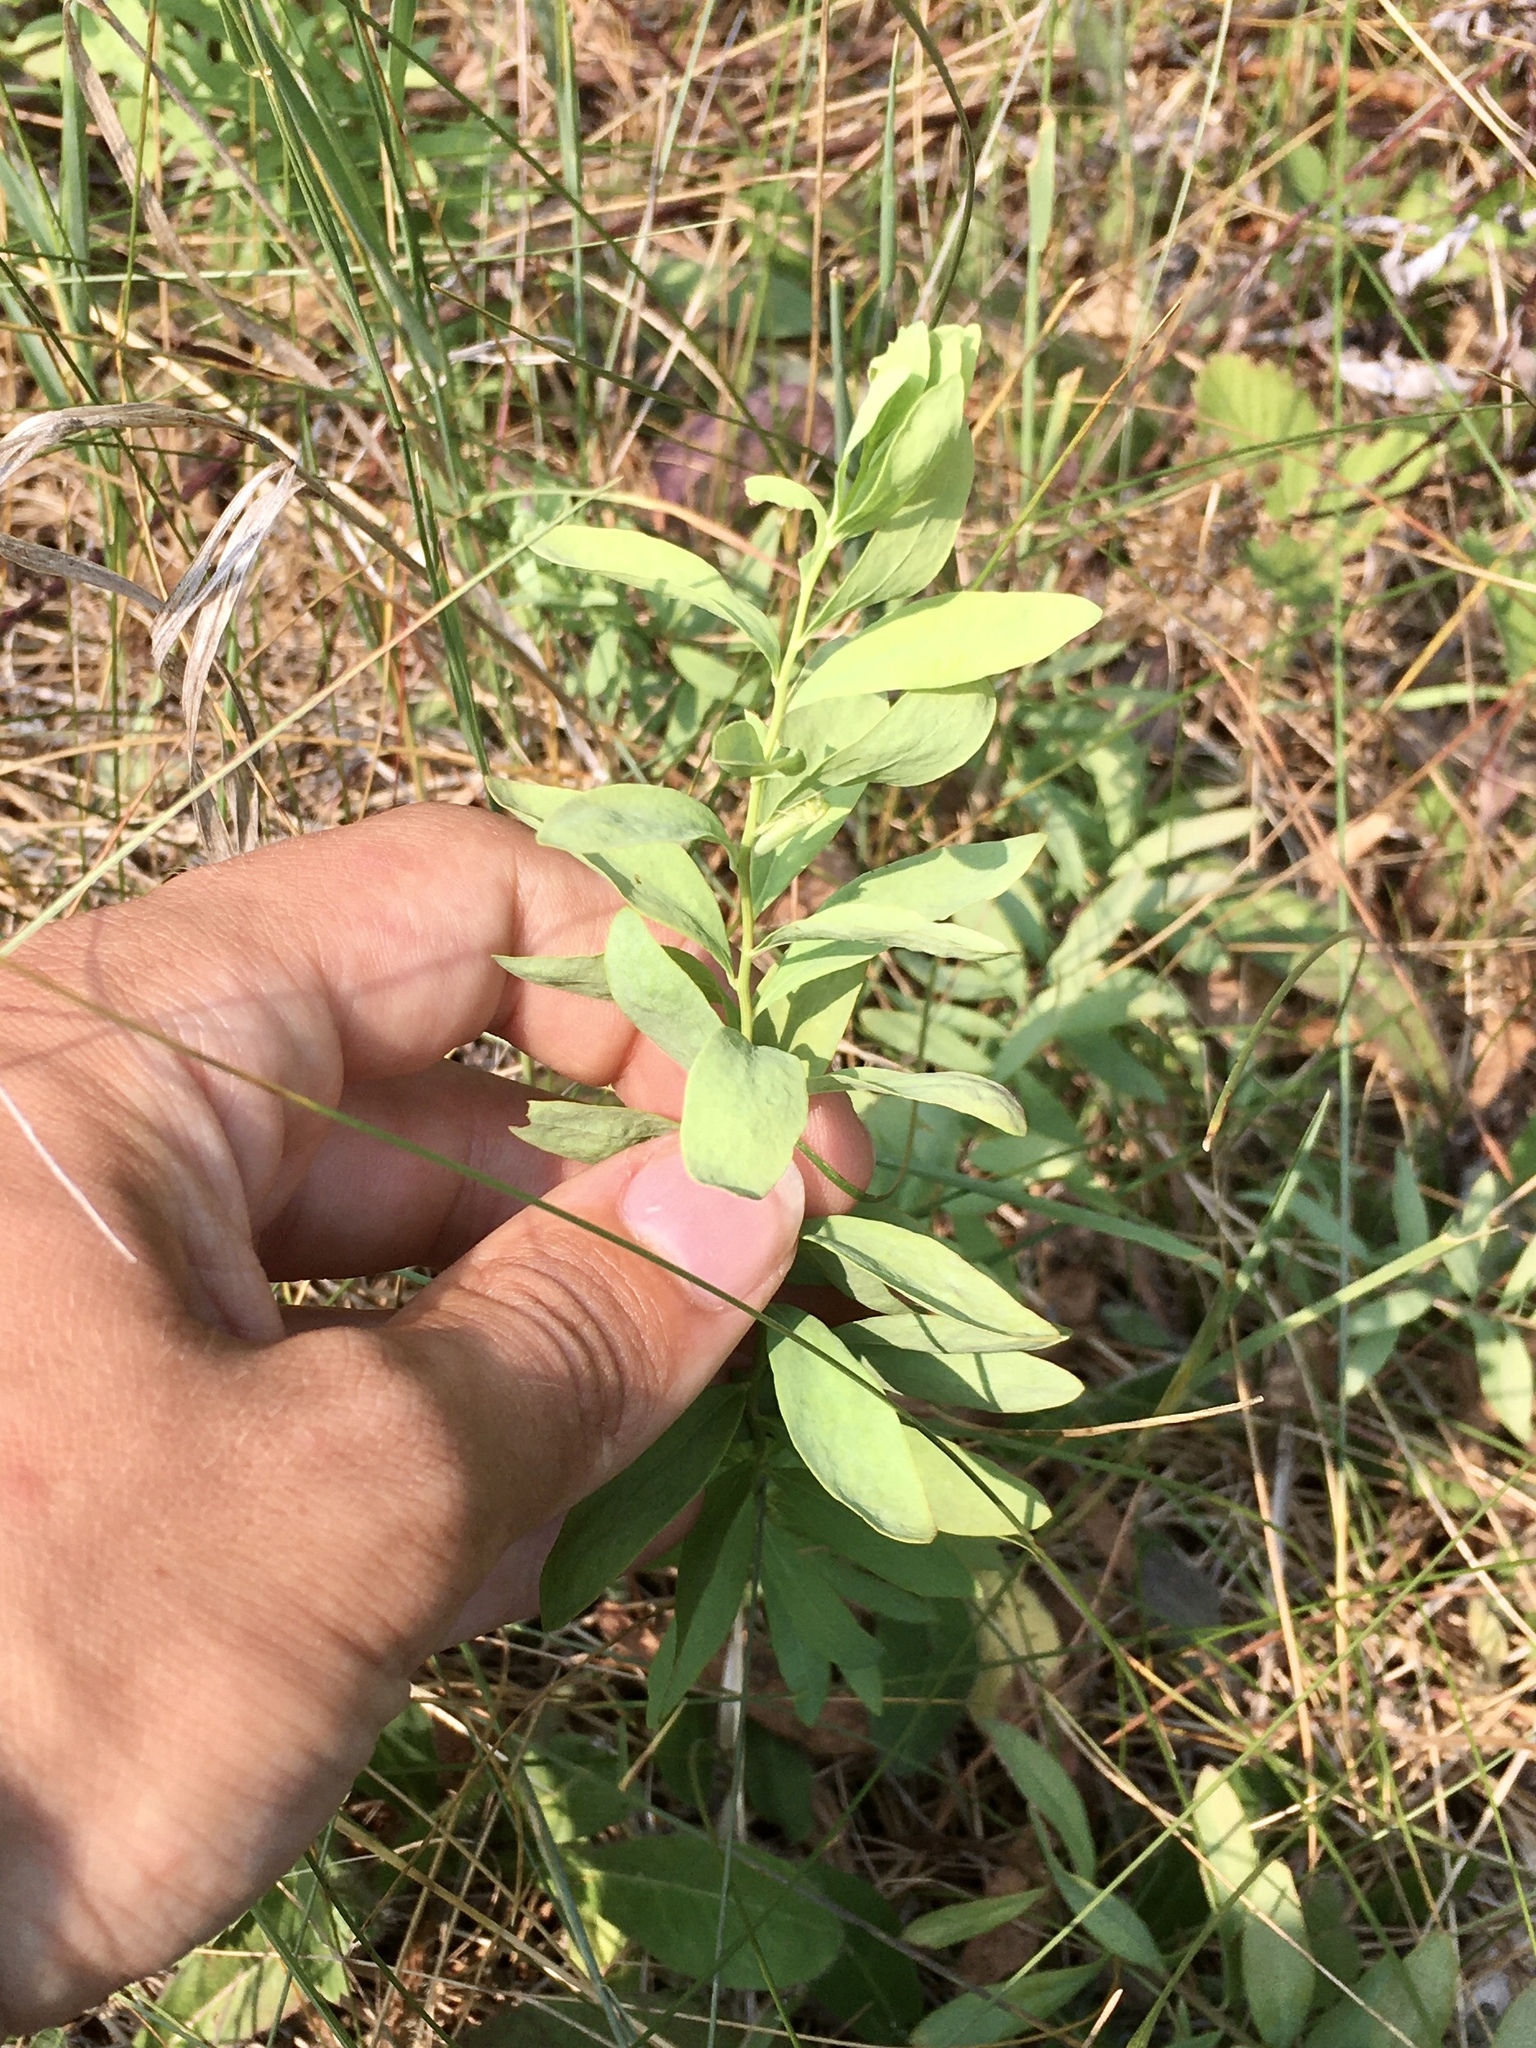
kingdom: Plantae
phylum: Tracheophyta
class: Magnoliopsida
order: Santalales
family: Comandraceae
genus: Comandra
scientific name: Comandra umbellata
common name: Bastard toadflax
